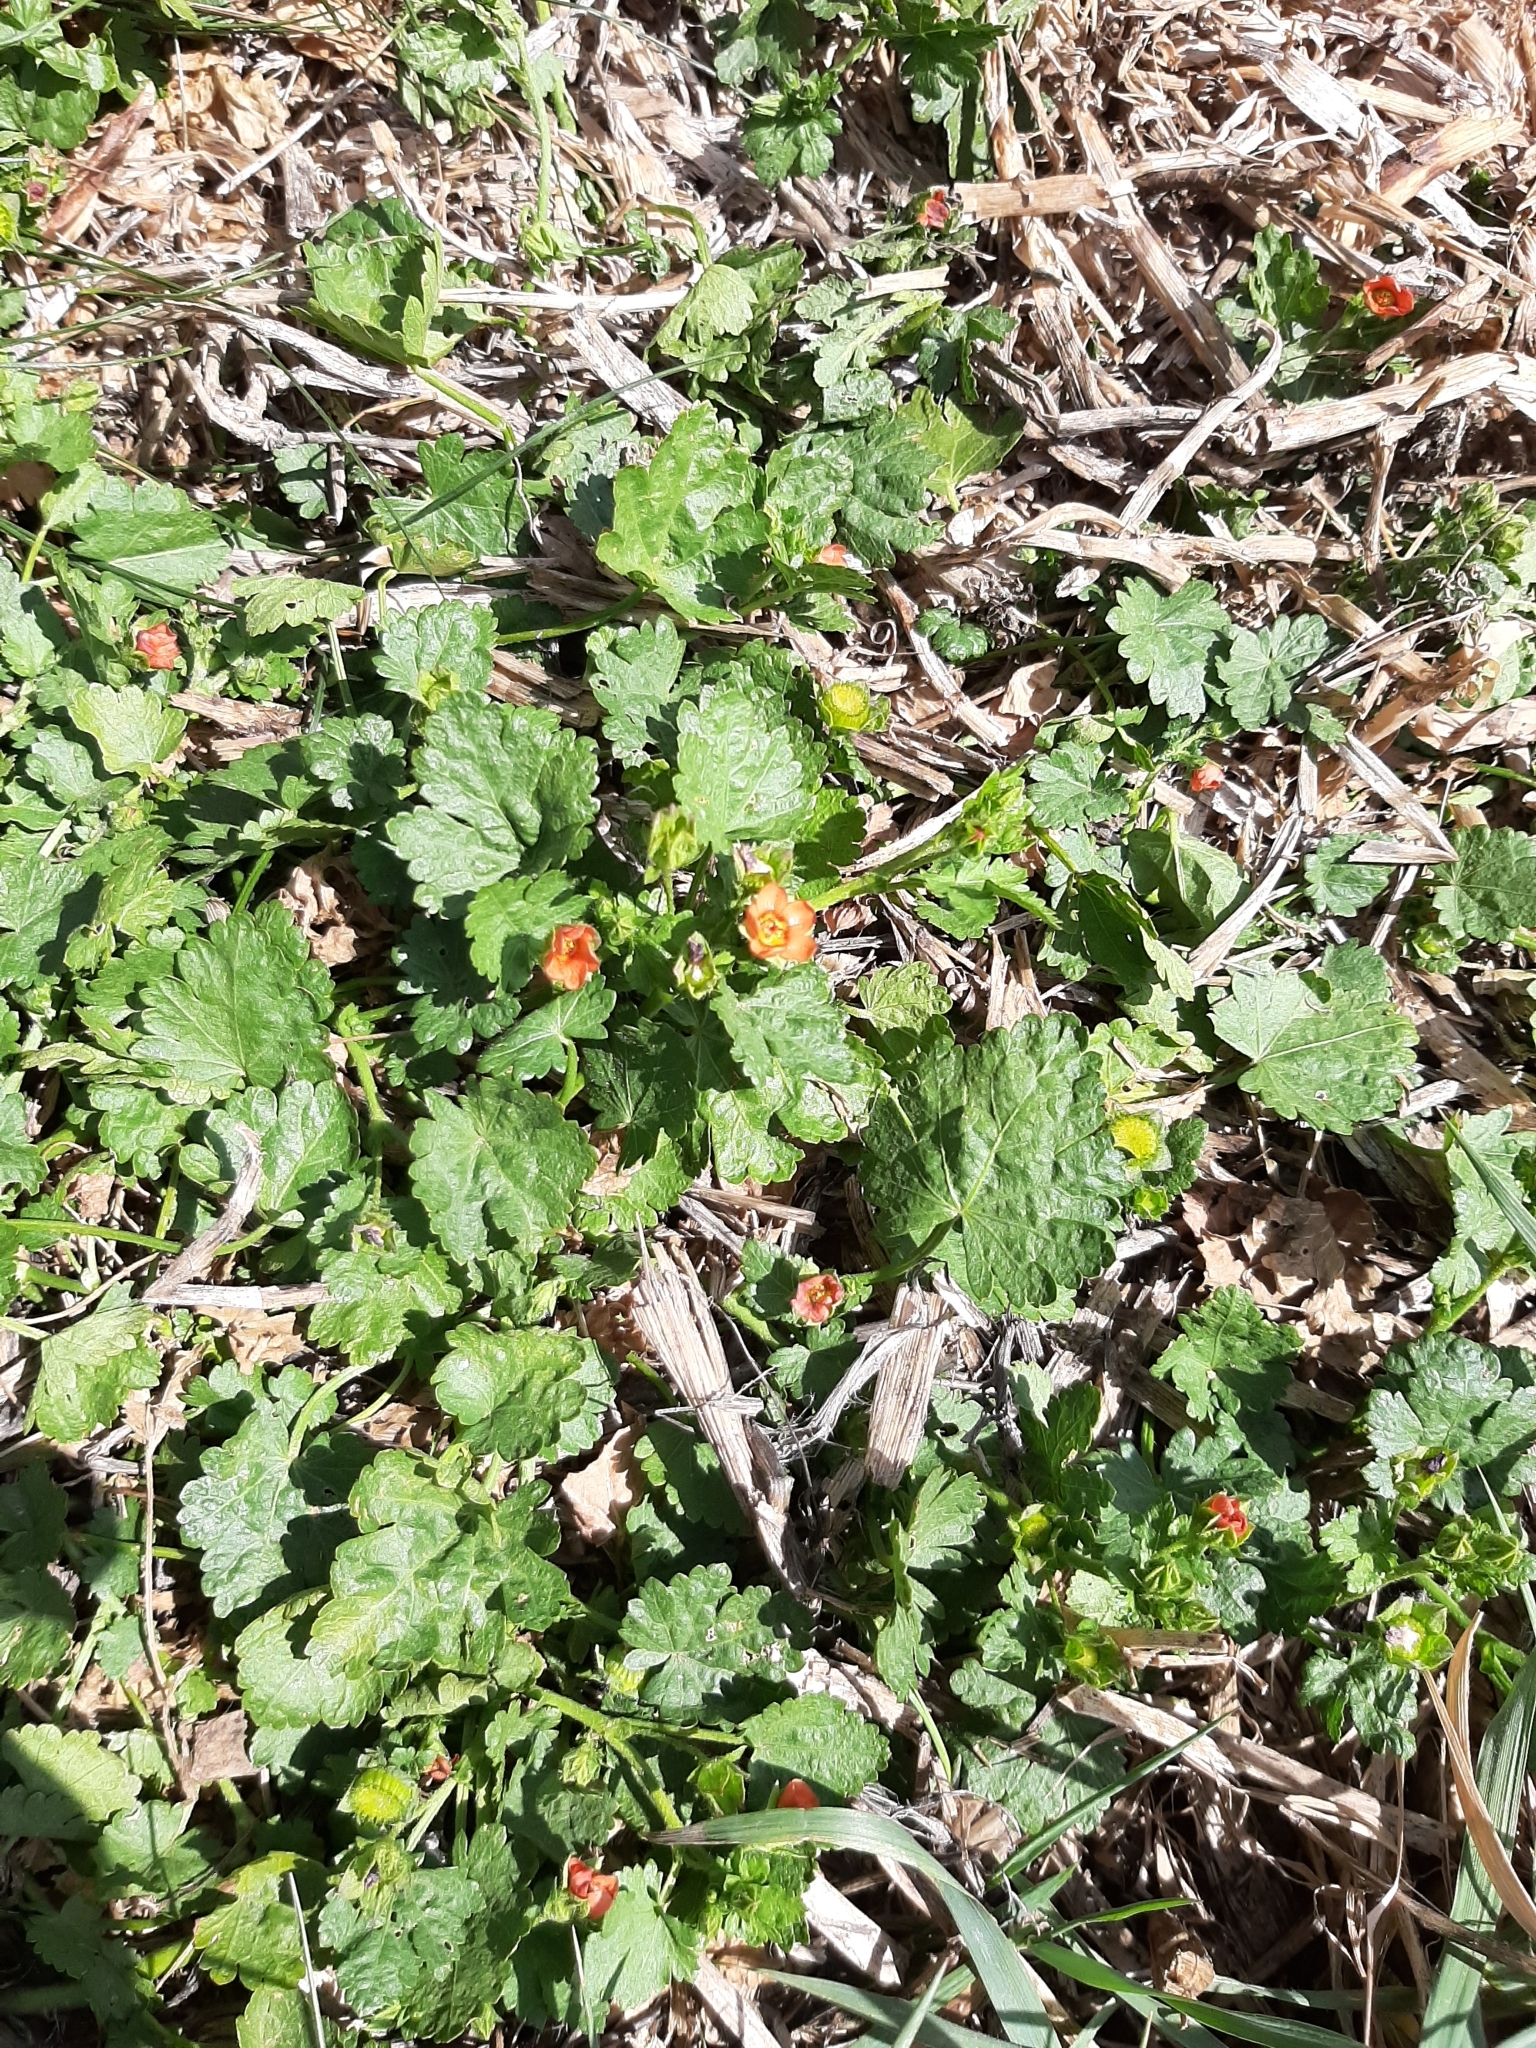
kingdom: Plantae
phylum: Tracheophyta
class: Magnoliopsida
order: Malvales
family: Malvaceae
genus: Modiola
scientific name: Modiola caroliniana
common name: Carolina bristlemallow
